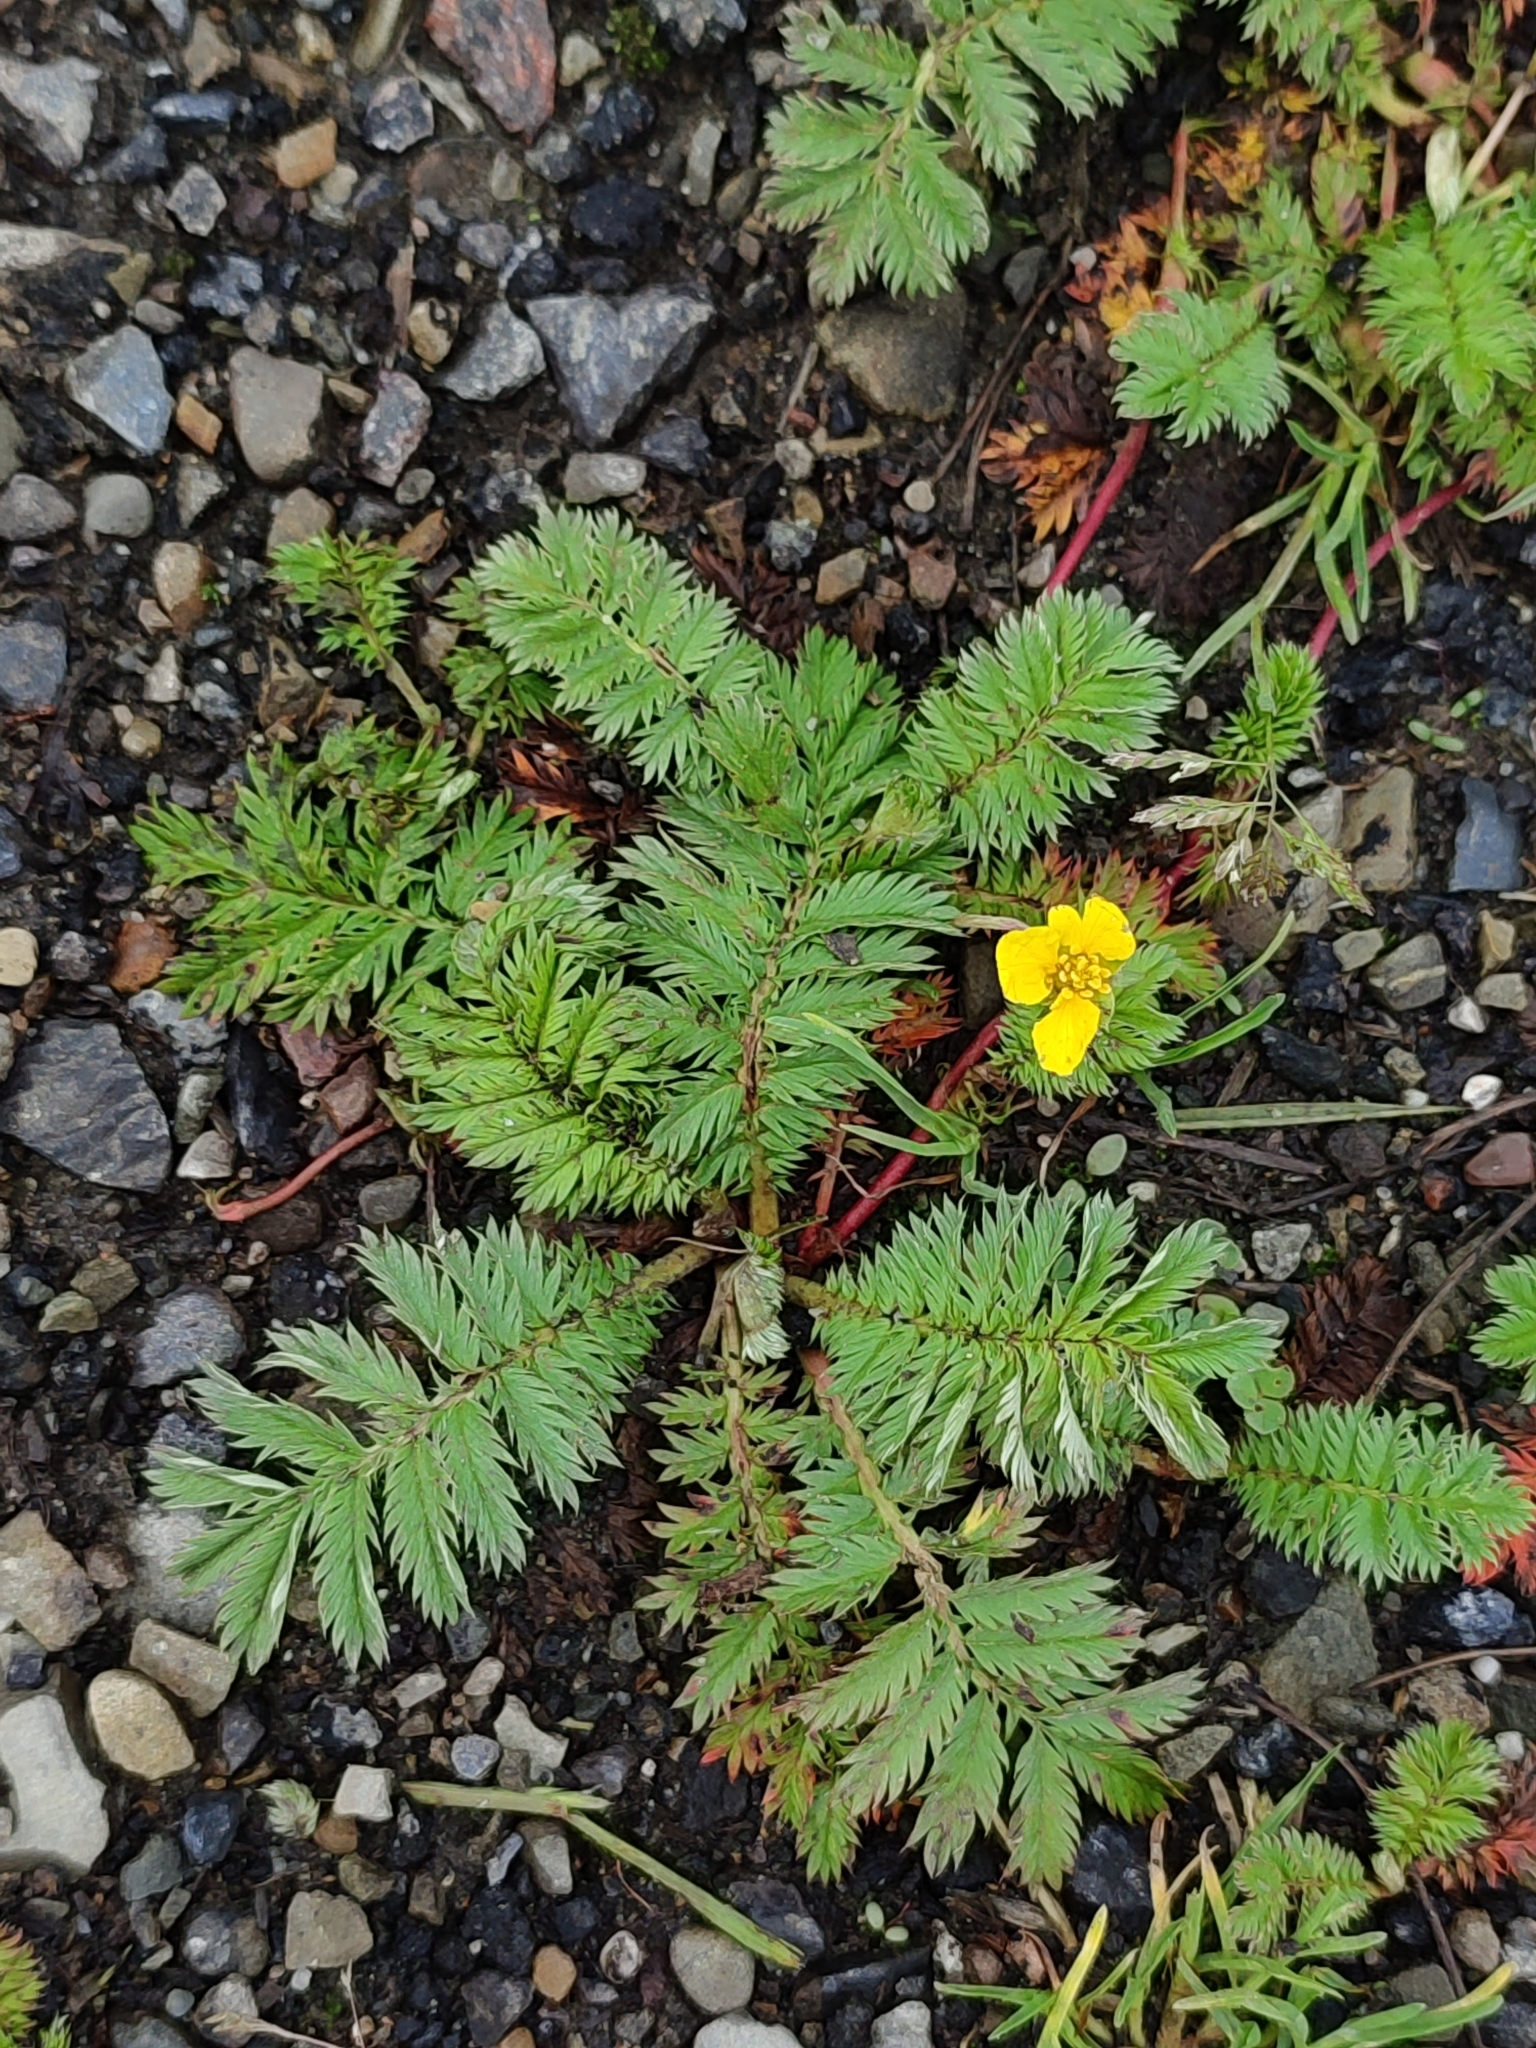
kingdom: Plantae
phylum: Tracheophyta
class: Magnoliopsida
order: Rosales
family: Rosaceae
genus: Argentina
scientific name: Argentina anserina
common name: Common silverweed
